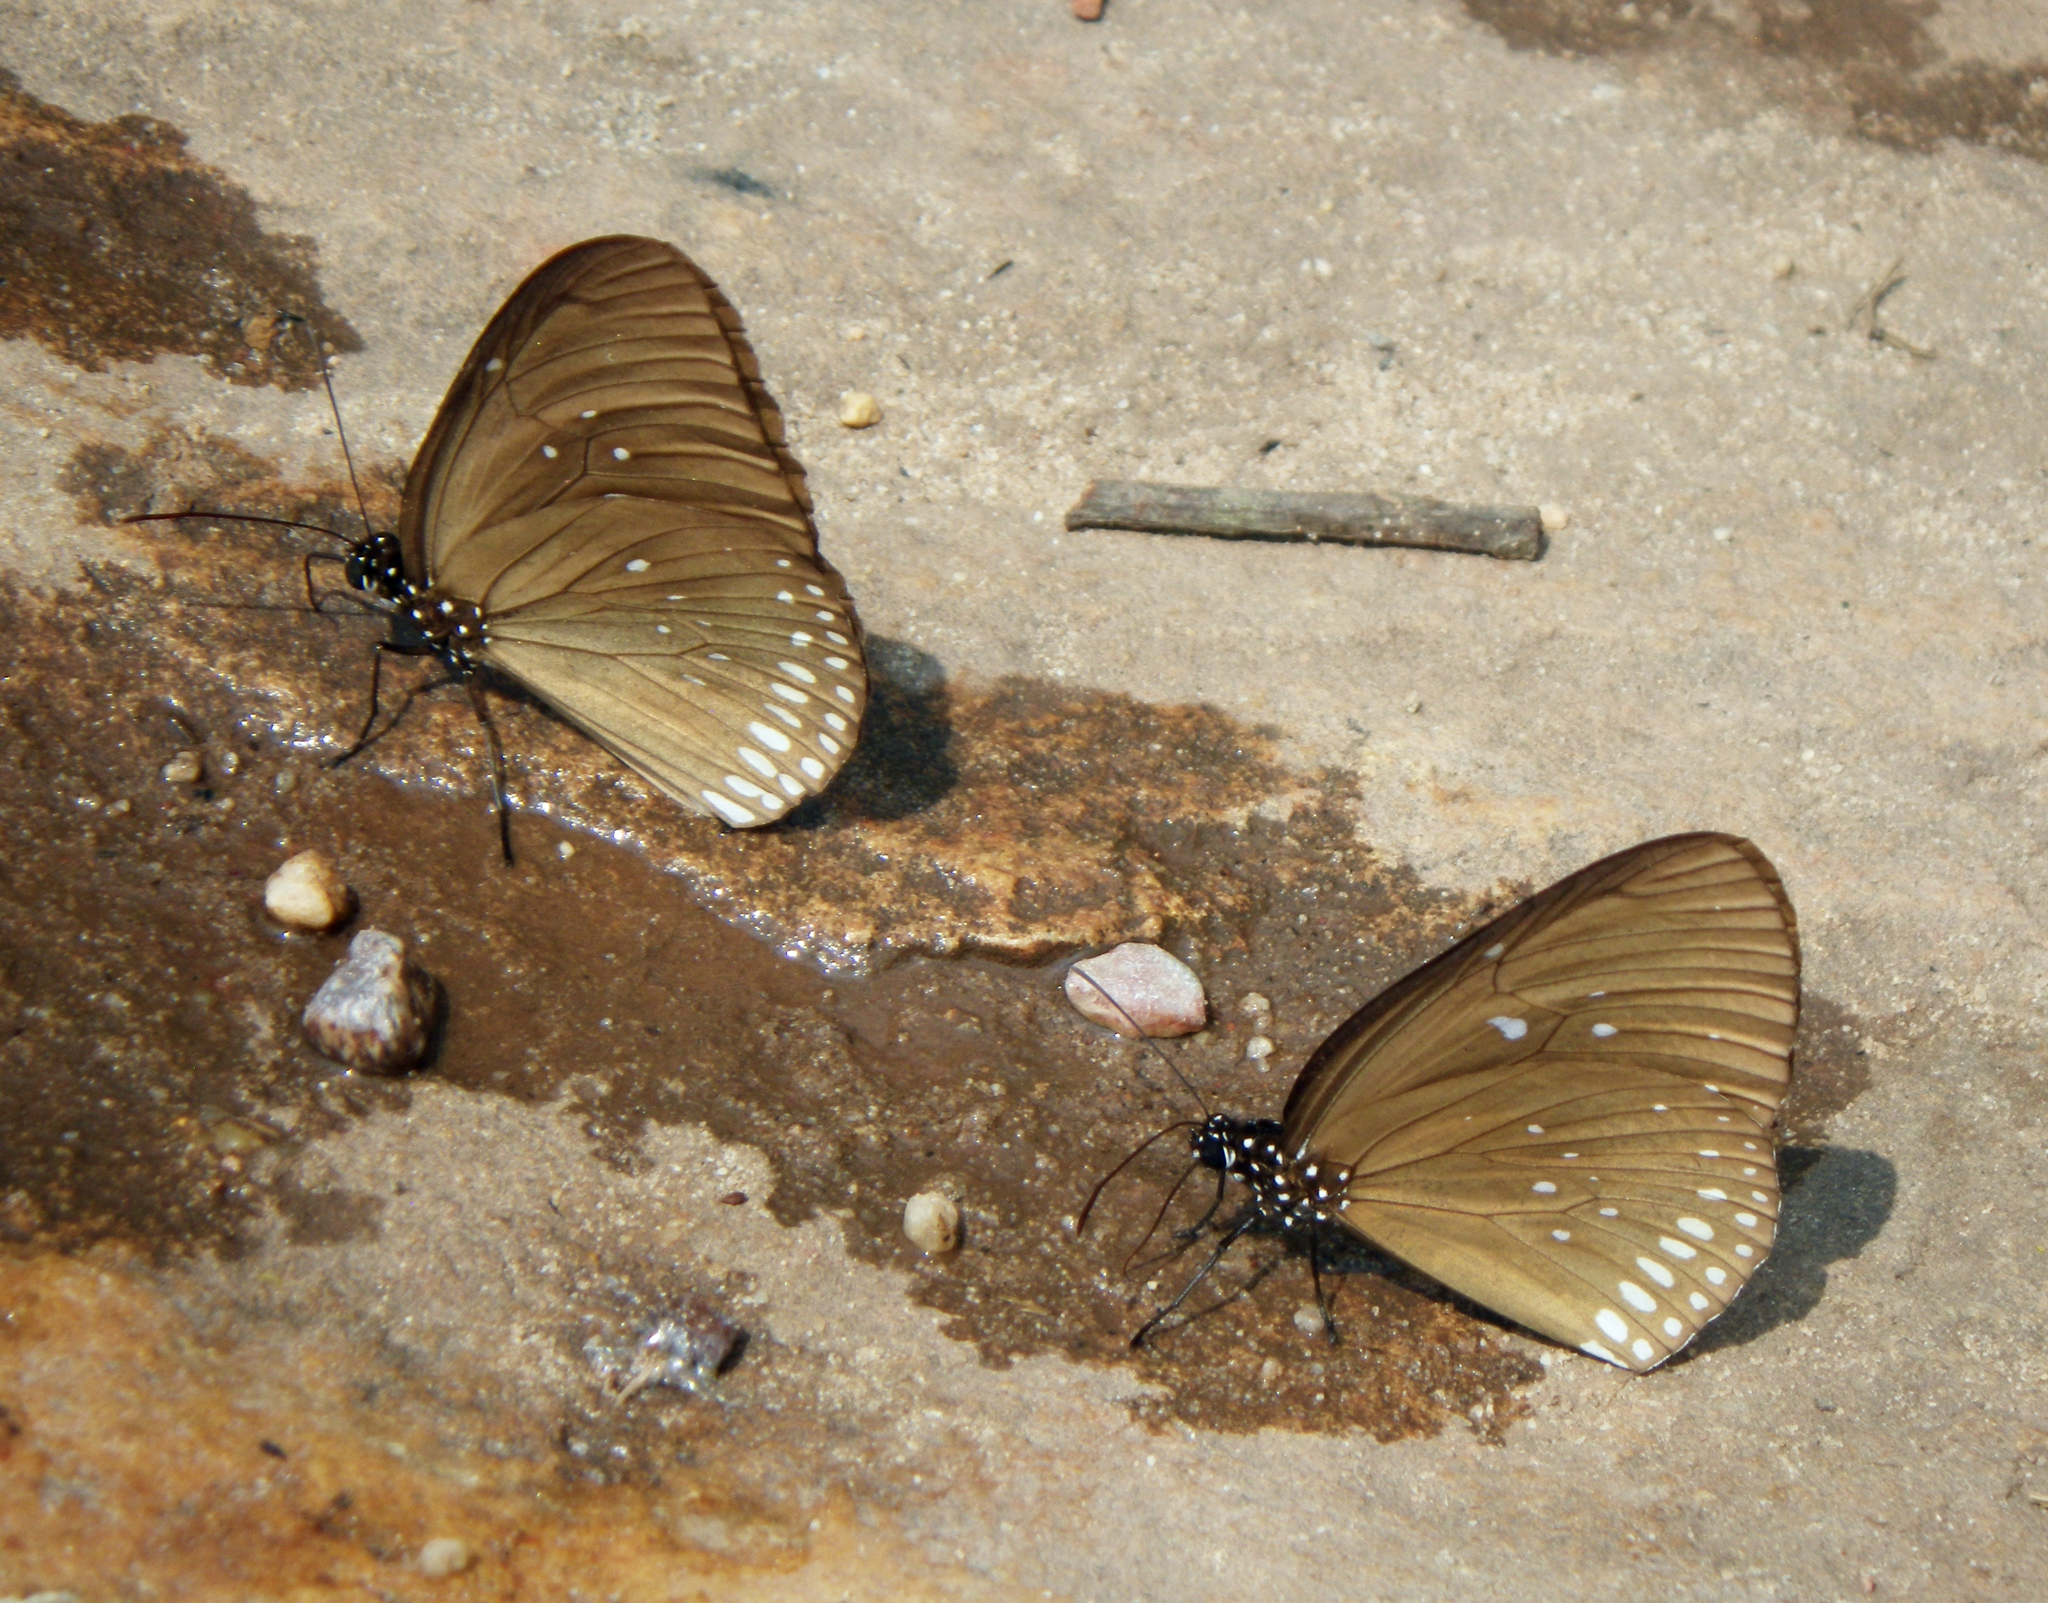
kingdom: Animalia
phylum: Arthropoda
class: Insecta
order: Lepidoptera
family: Nymphalidae
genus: Euploea
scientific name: Euploea algea
